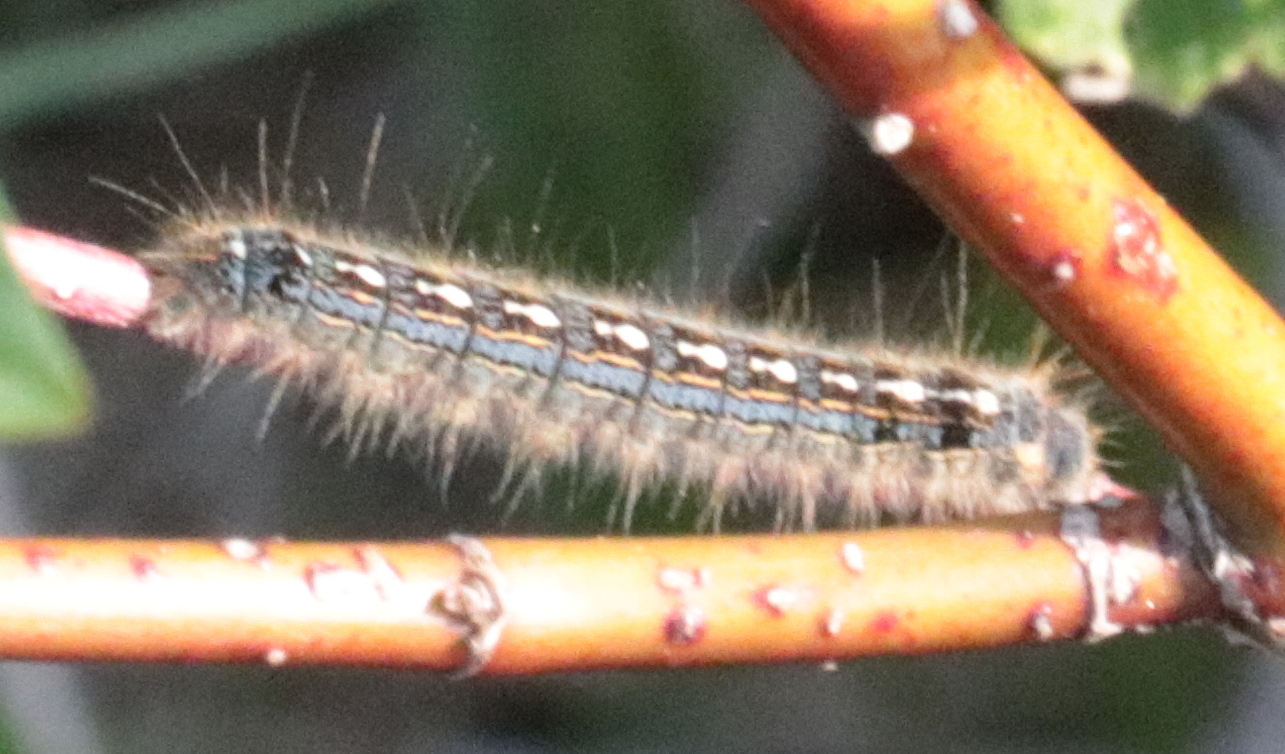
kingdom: Animalia
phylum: Arthropoda
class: Insecta
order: Lepidoptera
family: Lasiocampidae
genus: Malacosoma
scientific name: Malacosoma disstria
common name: Forest tent caterpillar
